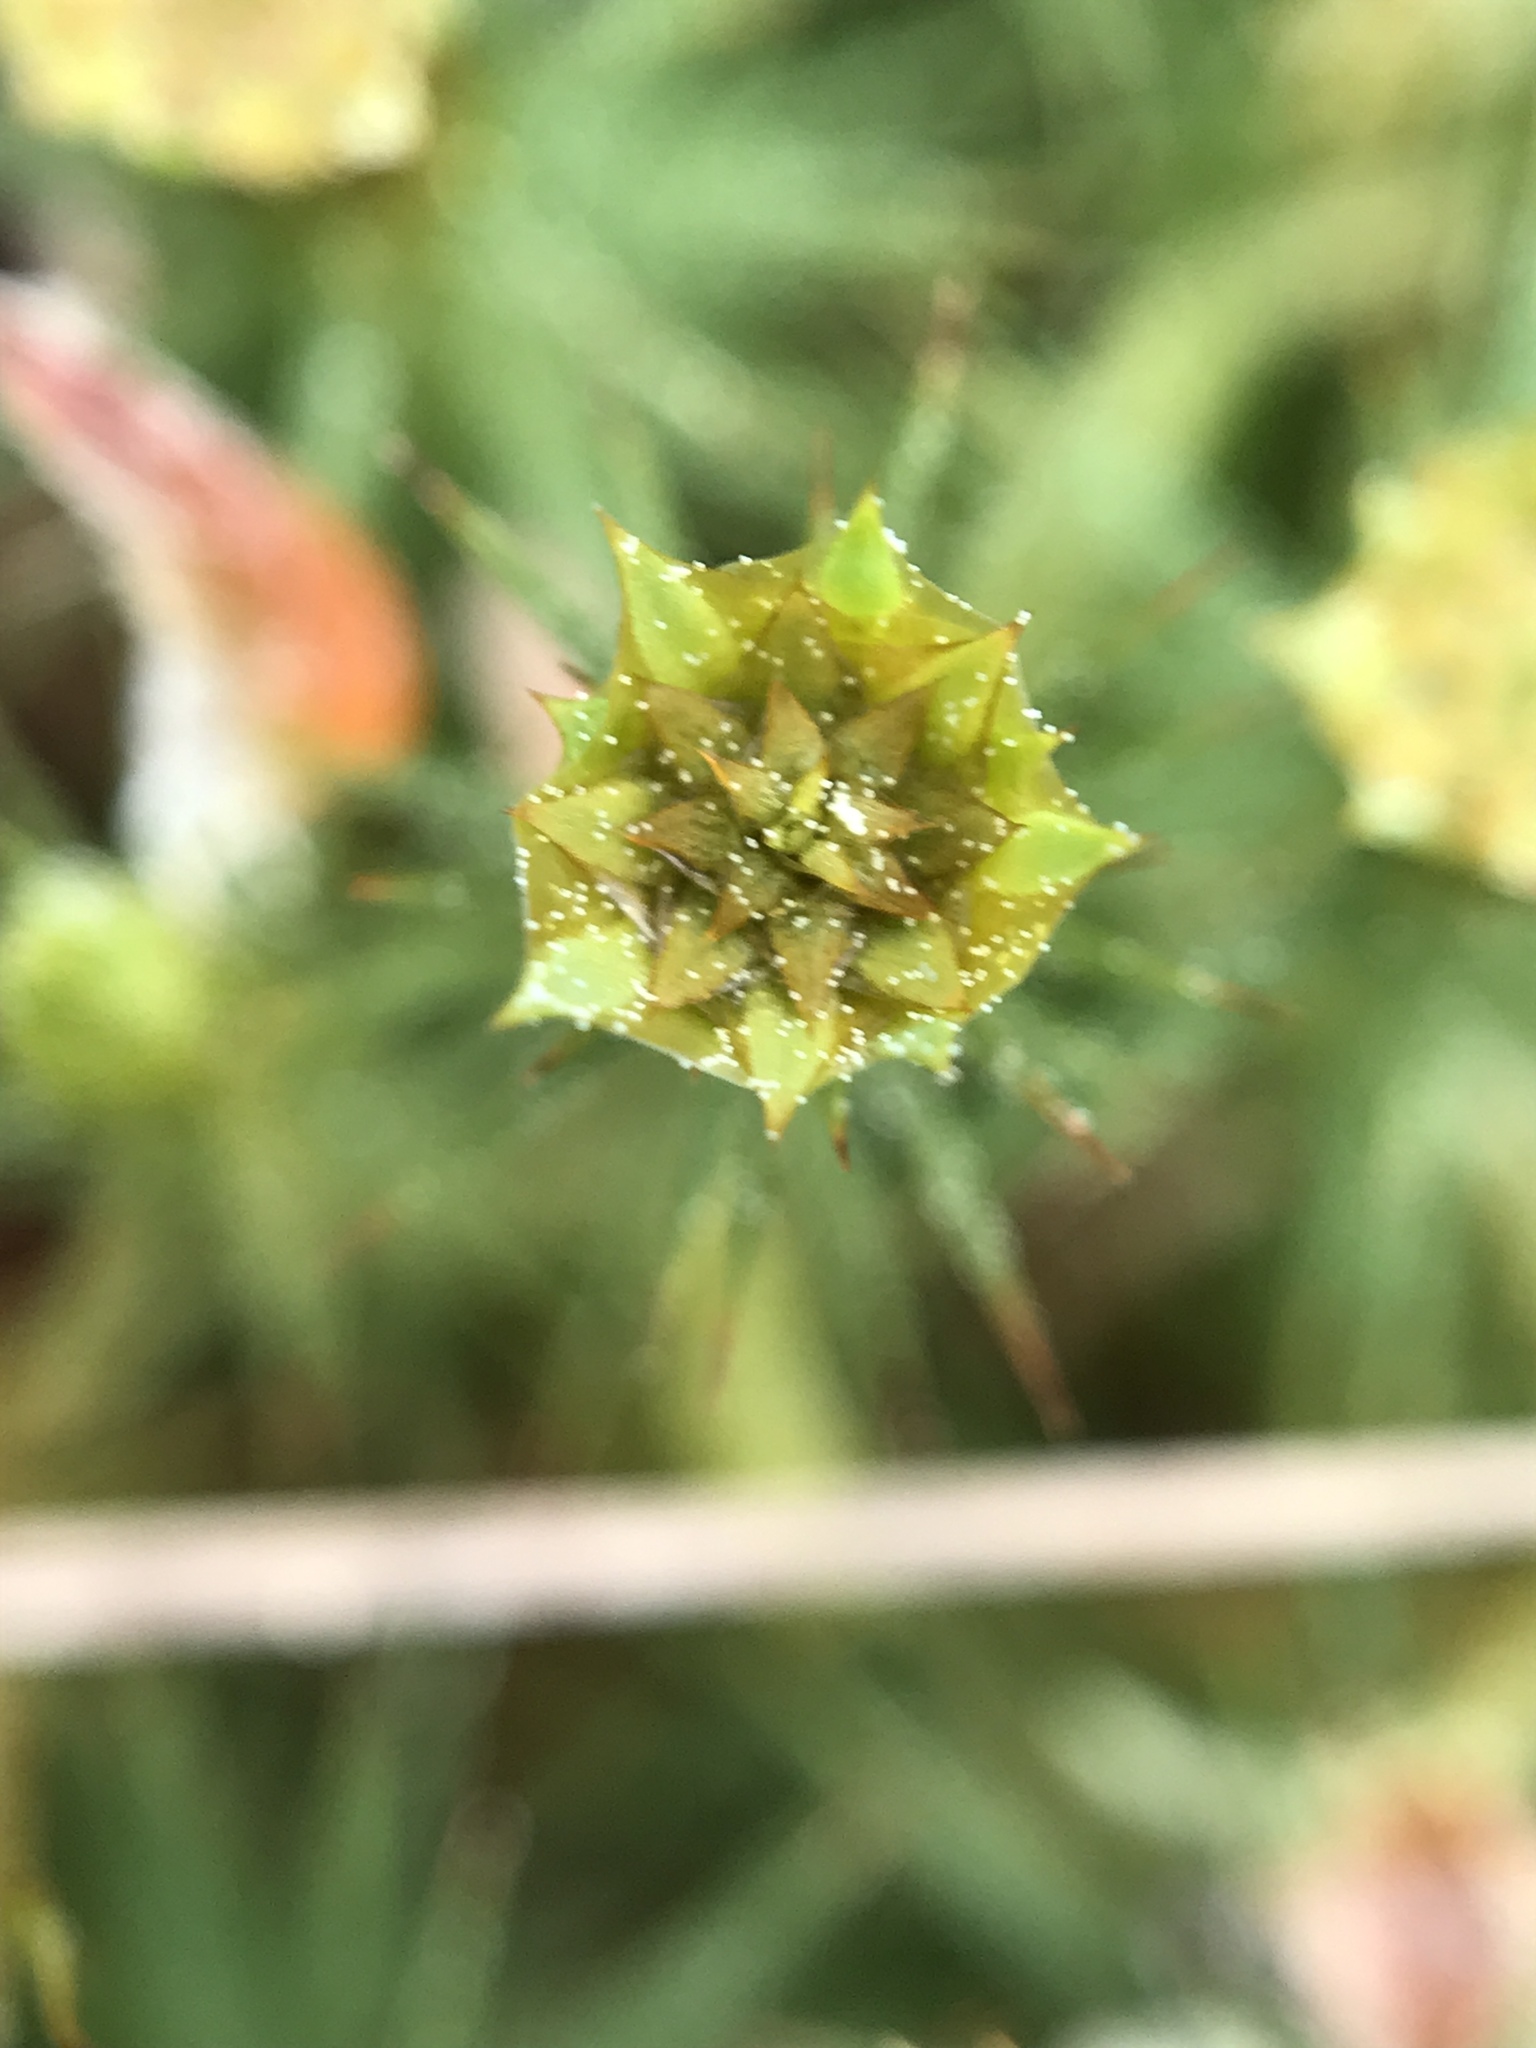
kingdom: Plantae
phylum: Bryophyta
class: Polytrichopsida
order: Polytrichales
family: Polytrichaceae
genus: Polytrichum
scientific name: Polytrichum commune
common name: Common haircap
